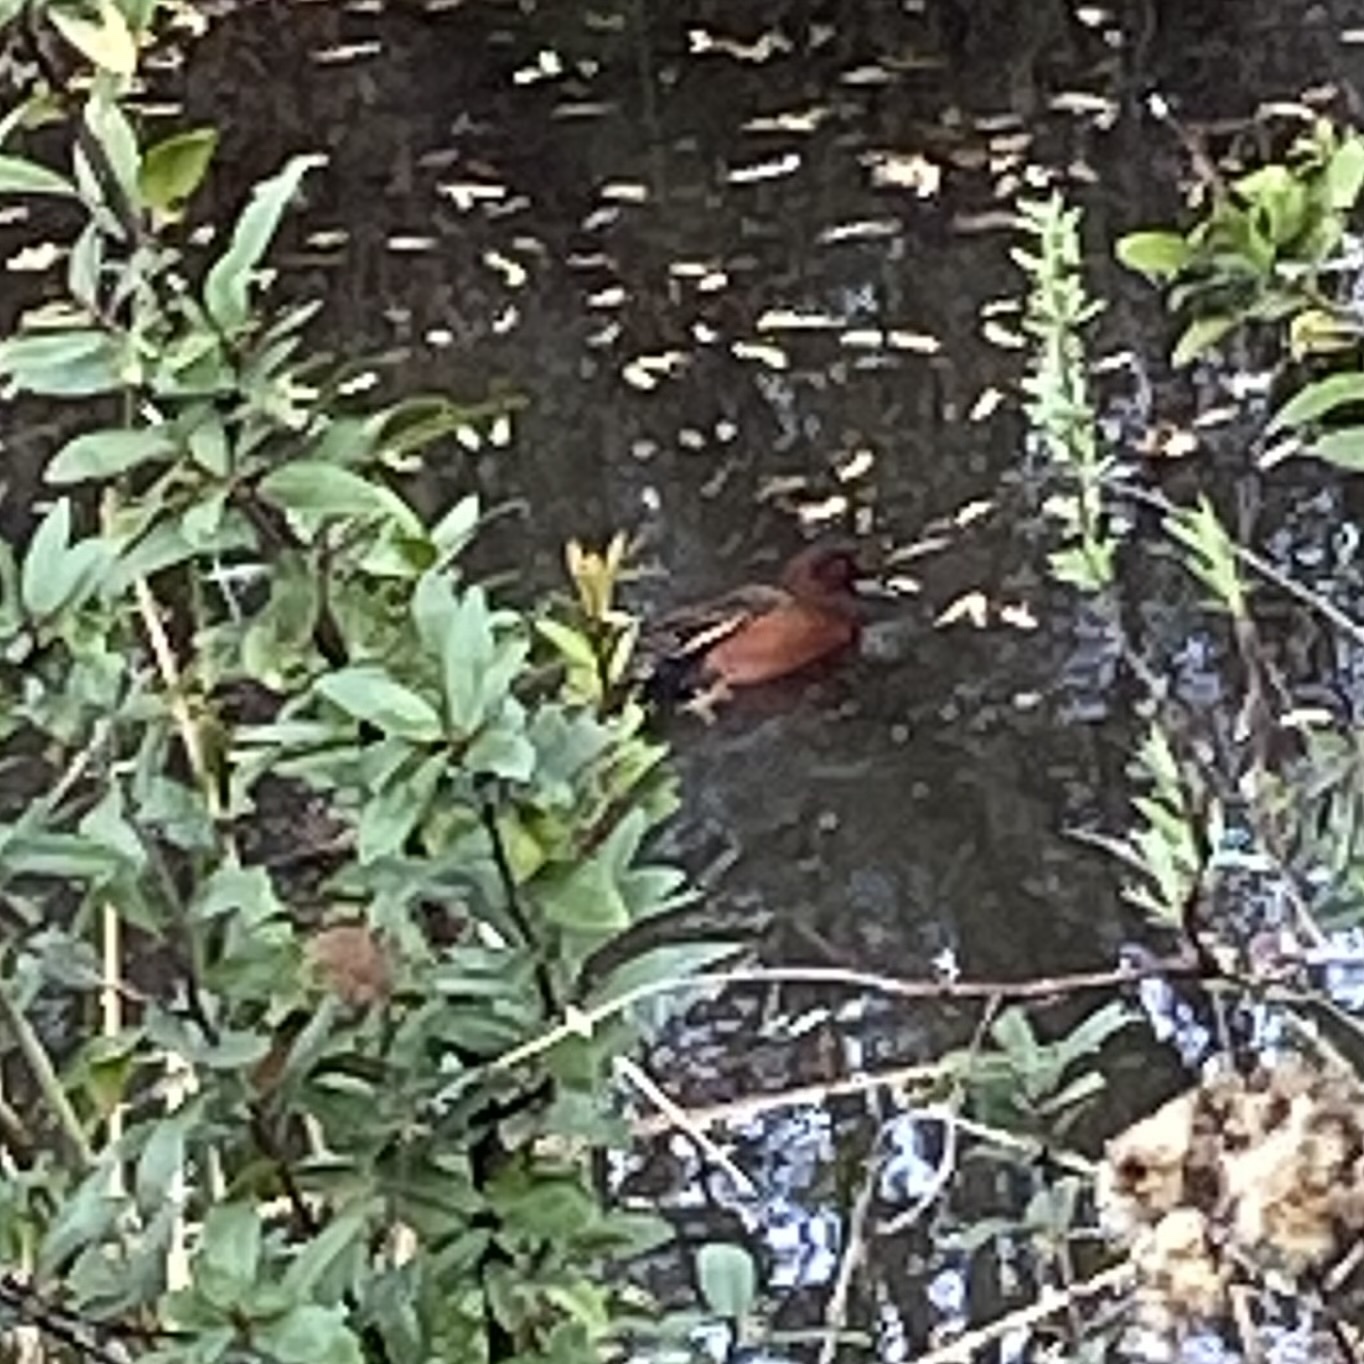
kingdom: Animalia
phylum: Chordata
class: Aves
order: Anseriformes
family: Anatidae
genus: Spatula
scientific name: Spatula cyanoptera
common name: Cinnamon teal
